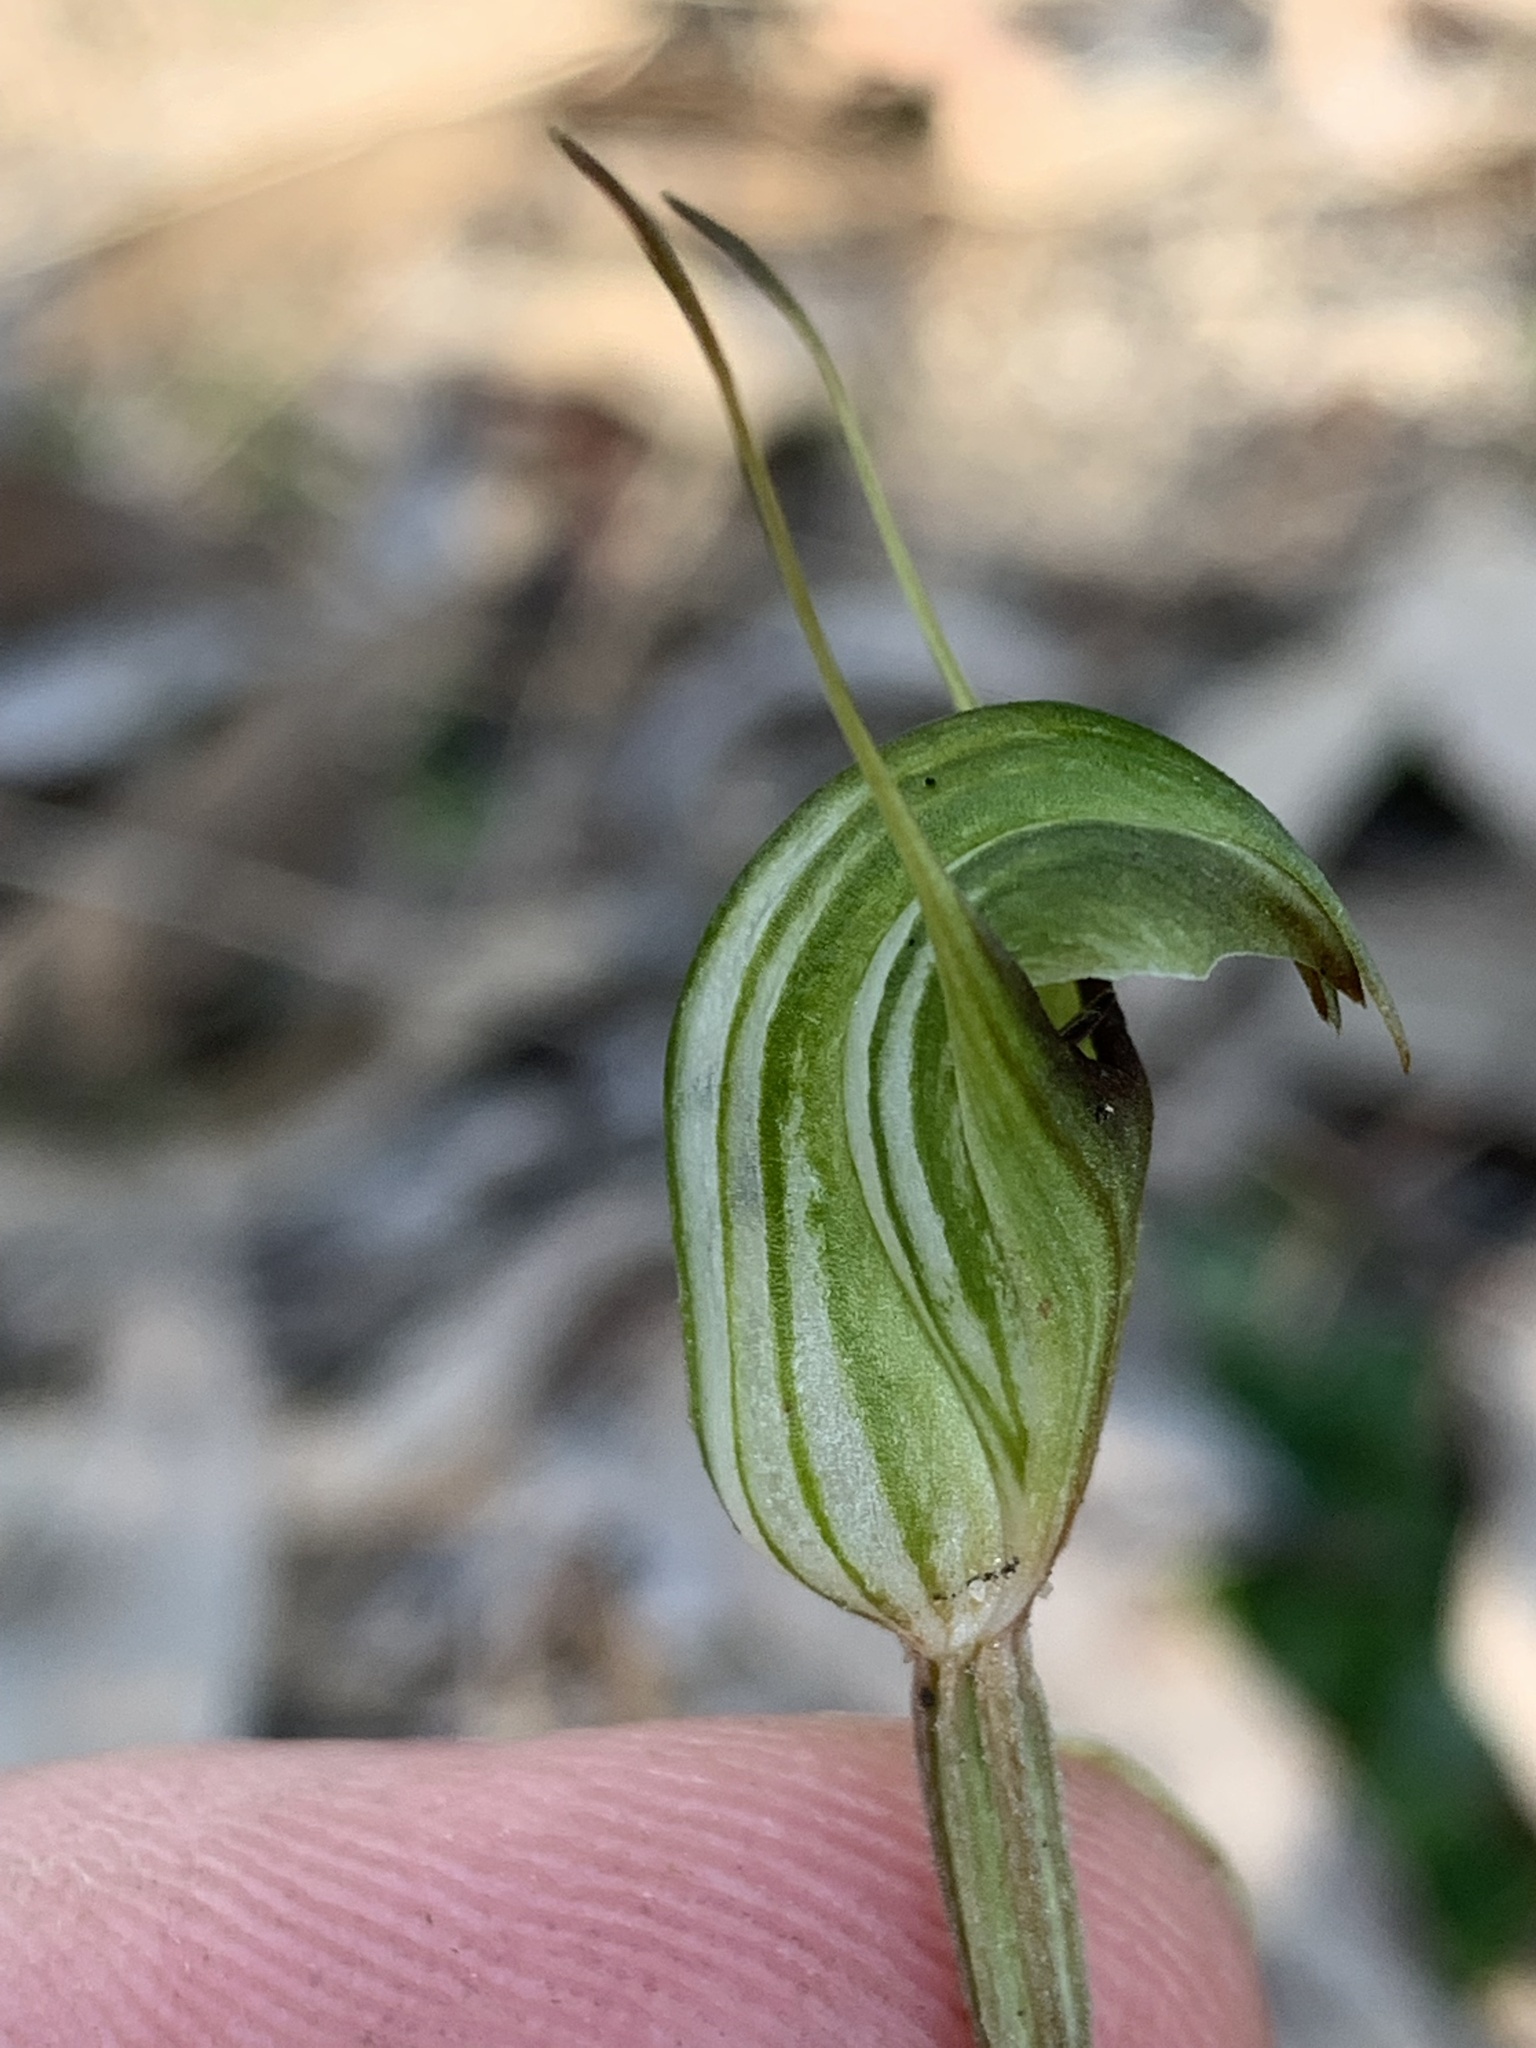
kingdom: Plantae
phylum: Tracheophyta
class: Liliopsida
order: Asparagales
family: Orchidaceae
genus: Pterostylis
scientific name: Pterostylis concinna
